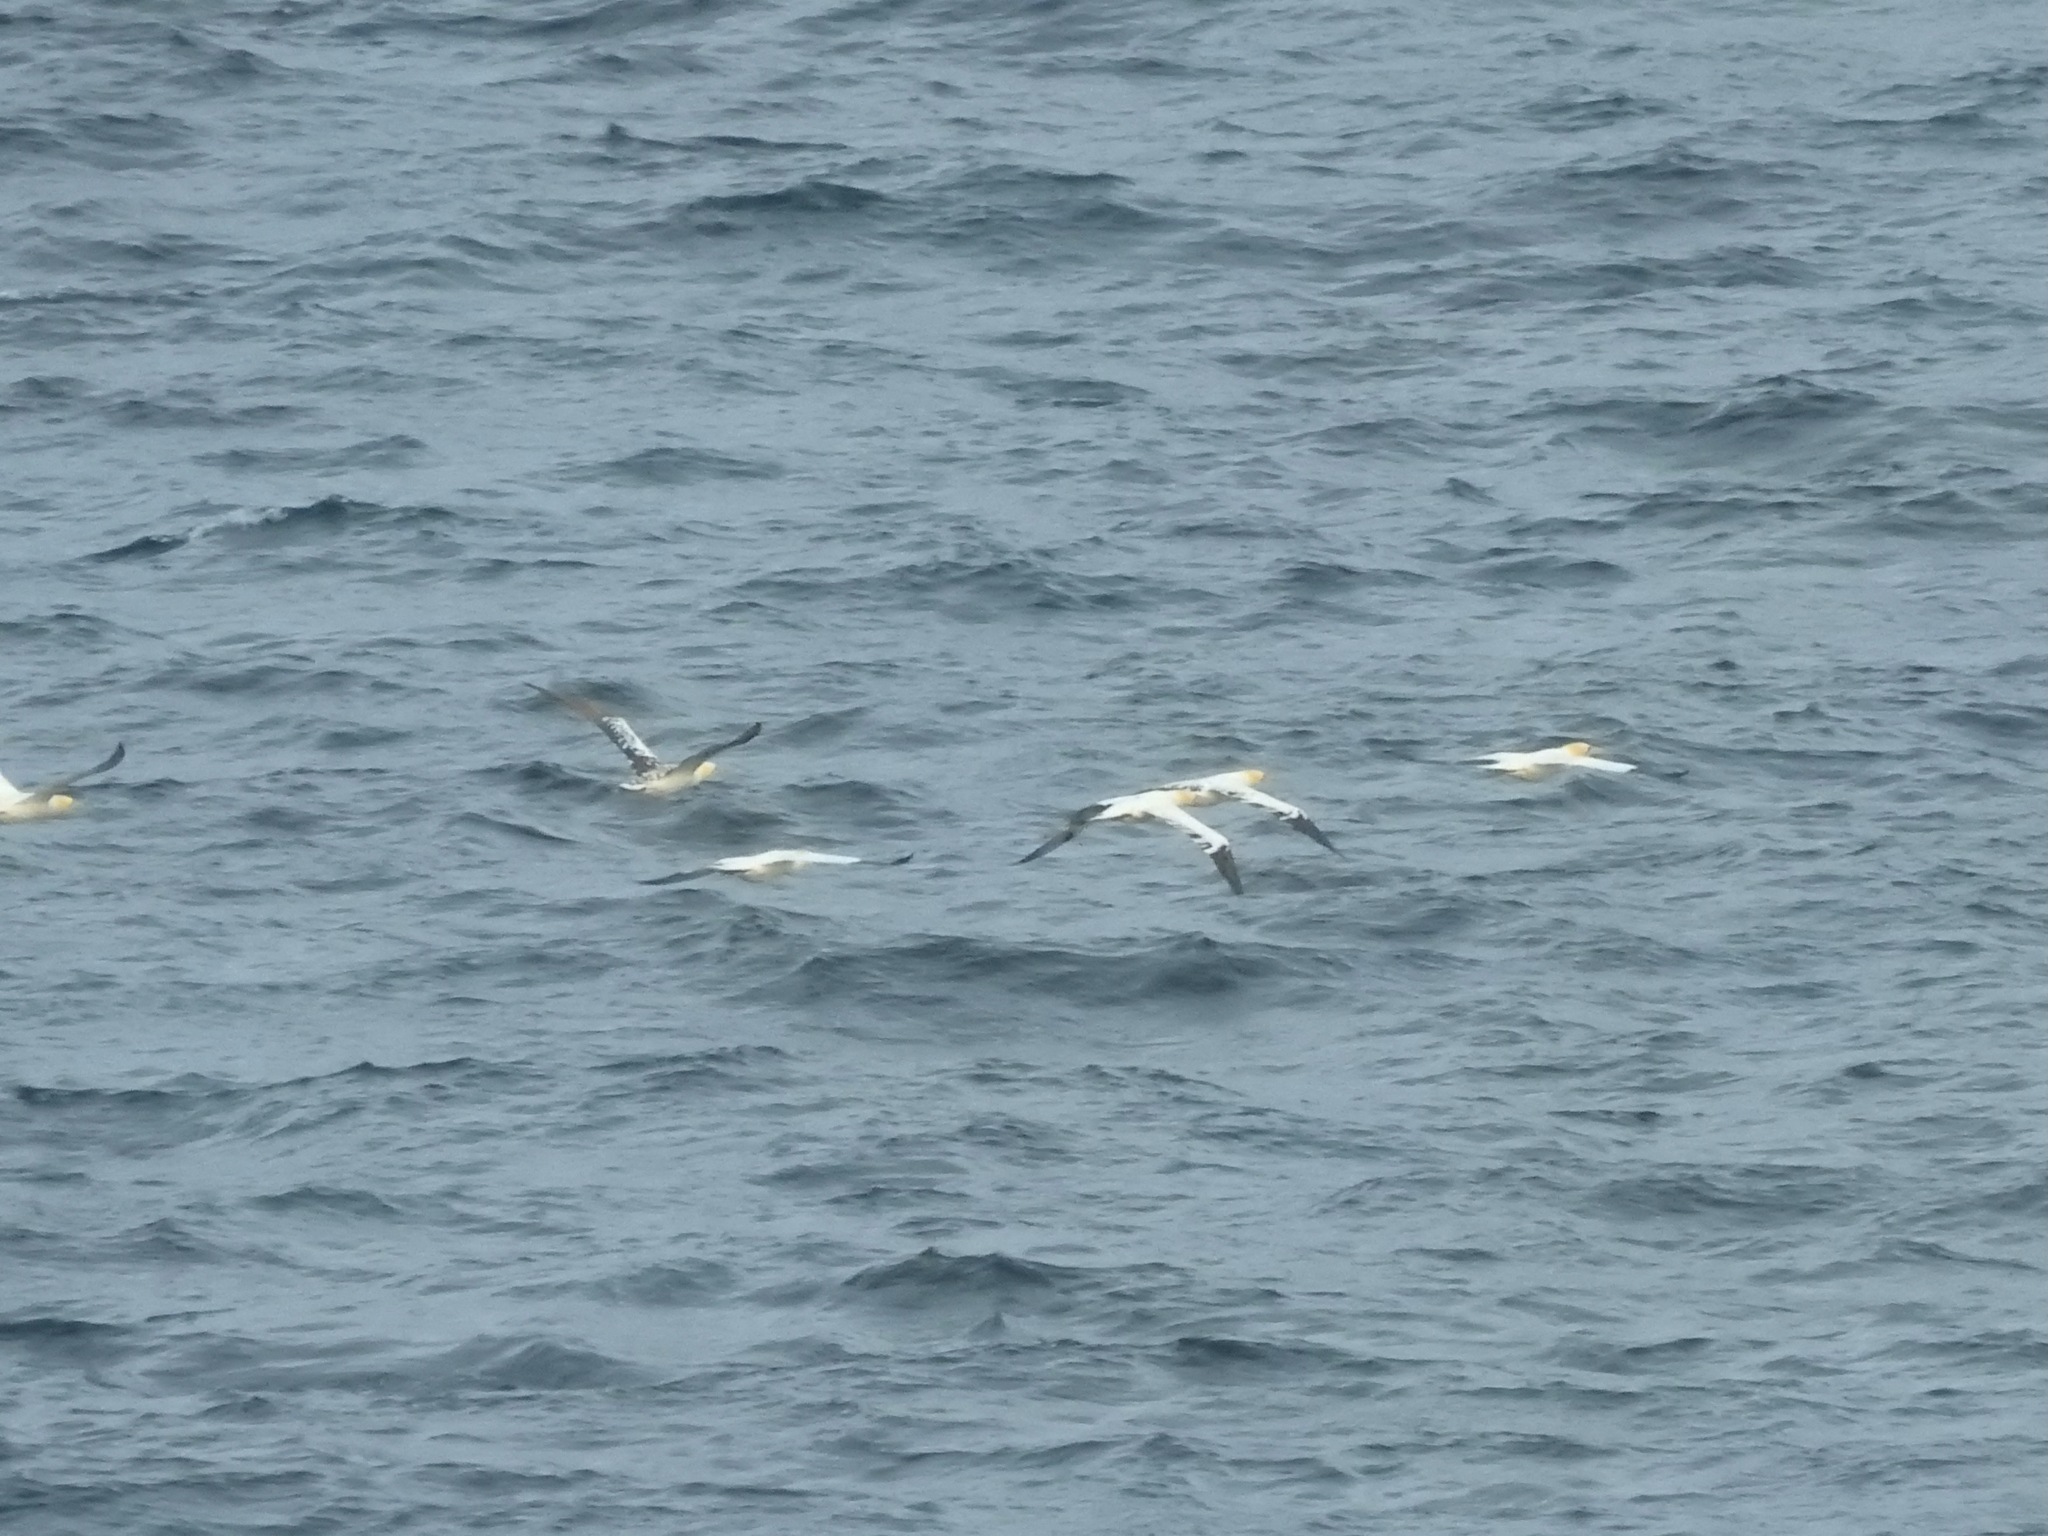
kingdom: Animalia
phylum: Chordata
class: Aves
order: Suliformes
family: Sulidae
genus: Morus
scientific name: Morus bassanus
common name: Northern gannet
